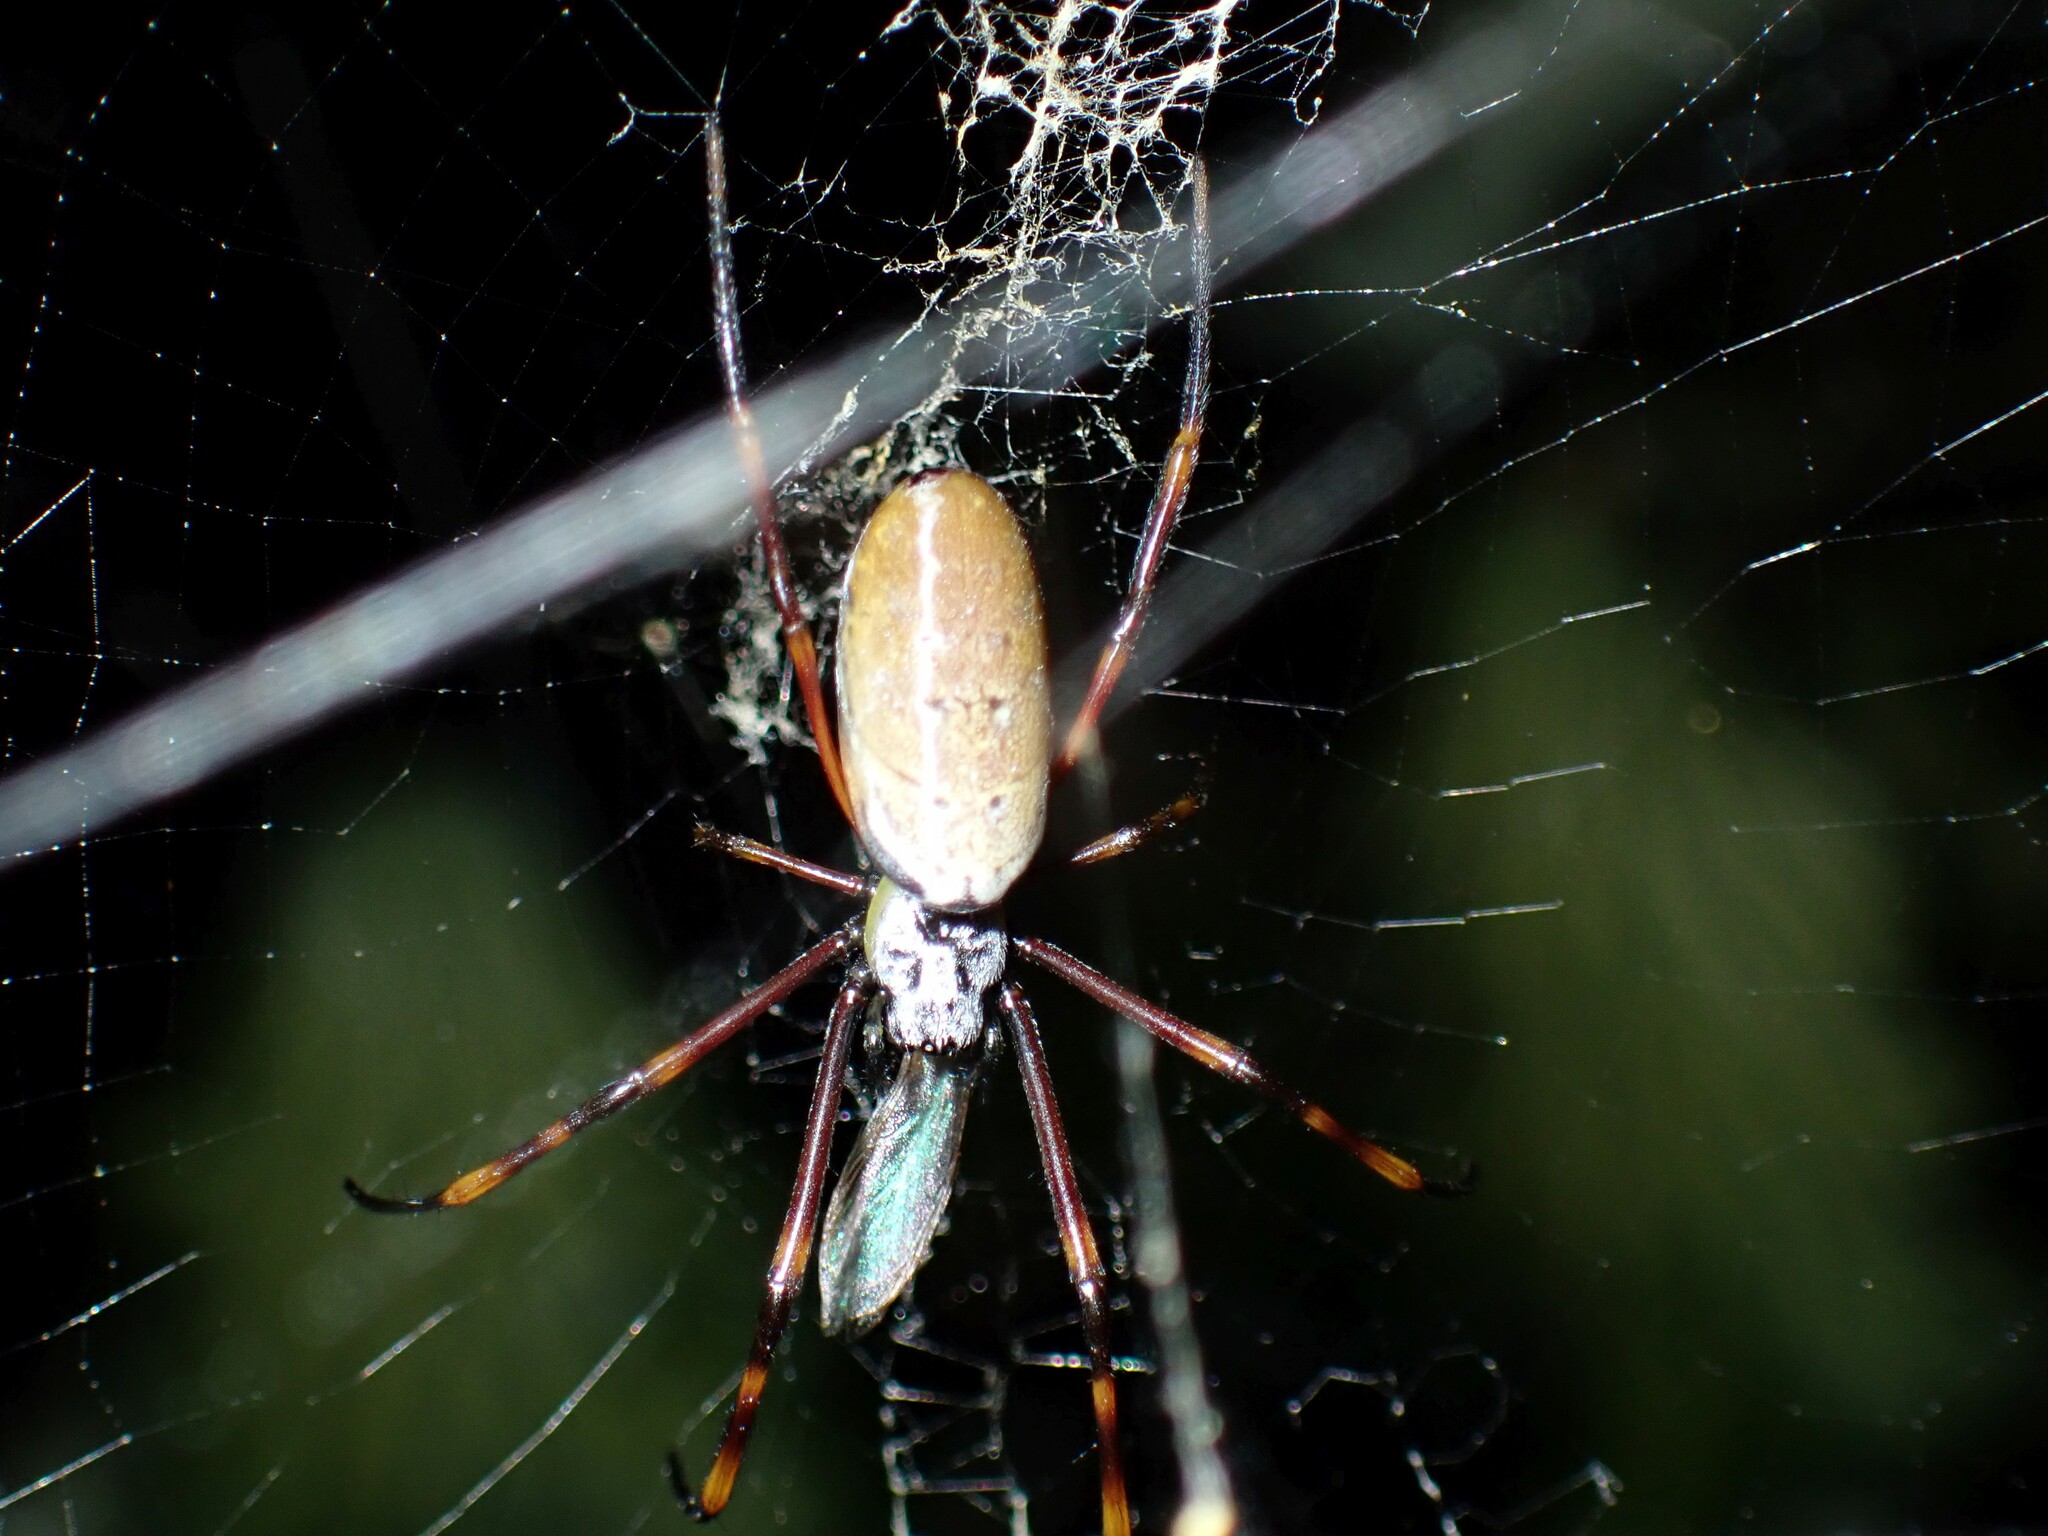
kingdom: Animalia
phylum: Arthropoda
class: Arachnida
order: Araneae
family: Araneidae
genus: Trichonephila
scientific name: Trichonephila plumipes
